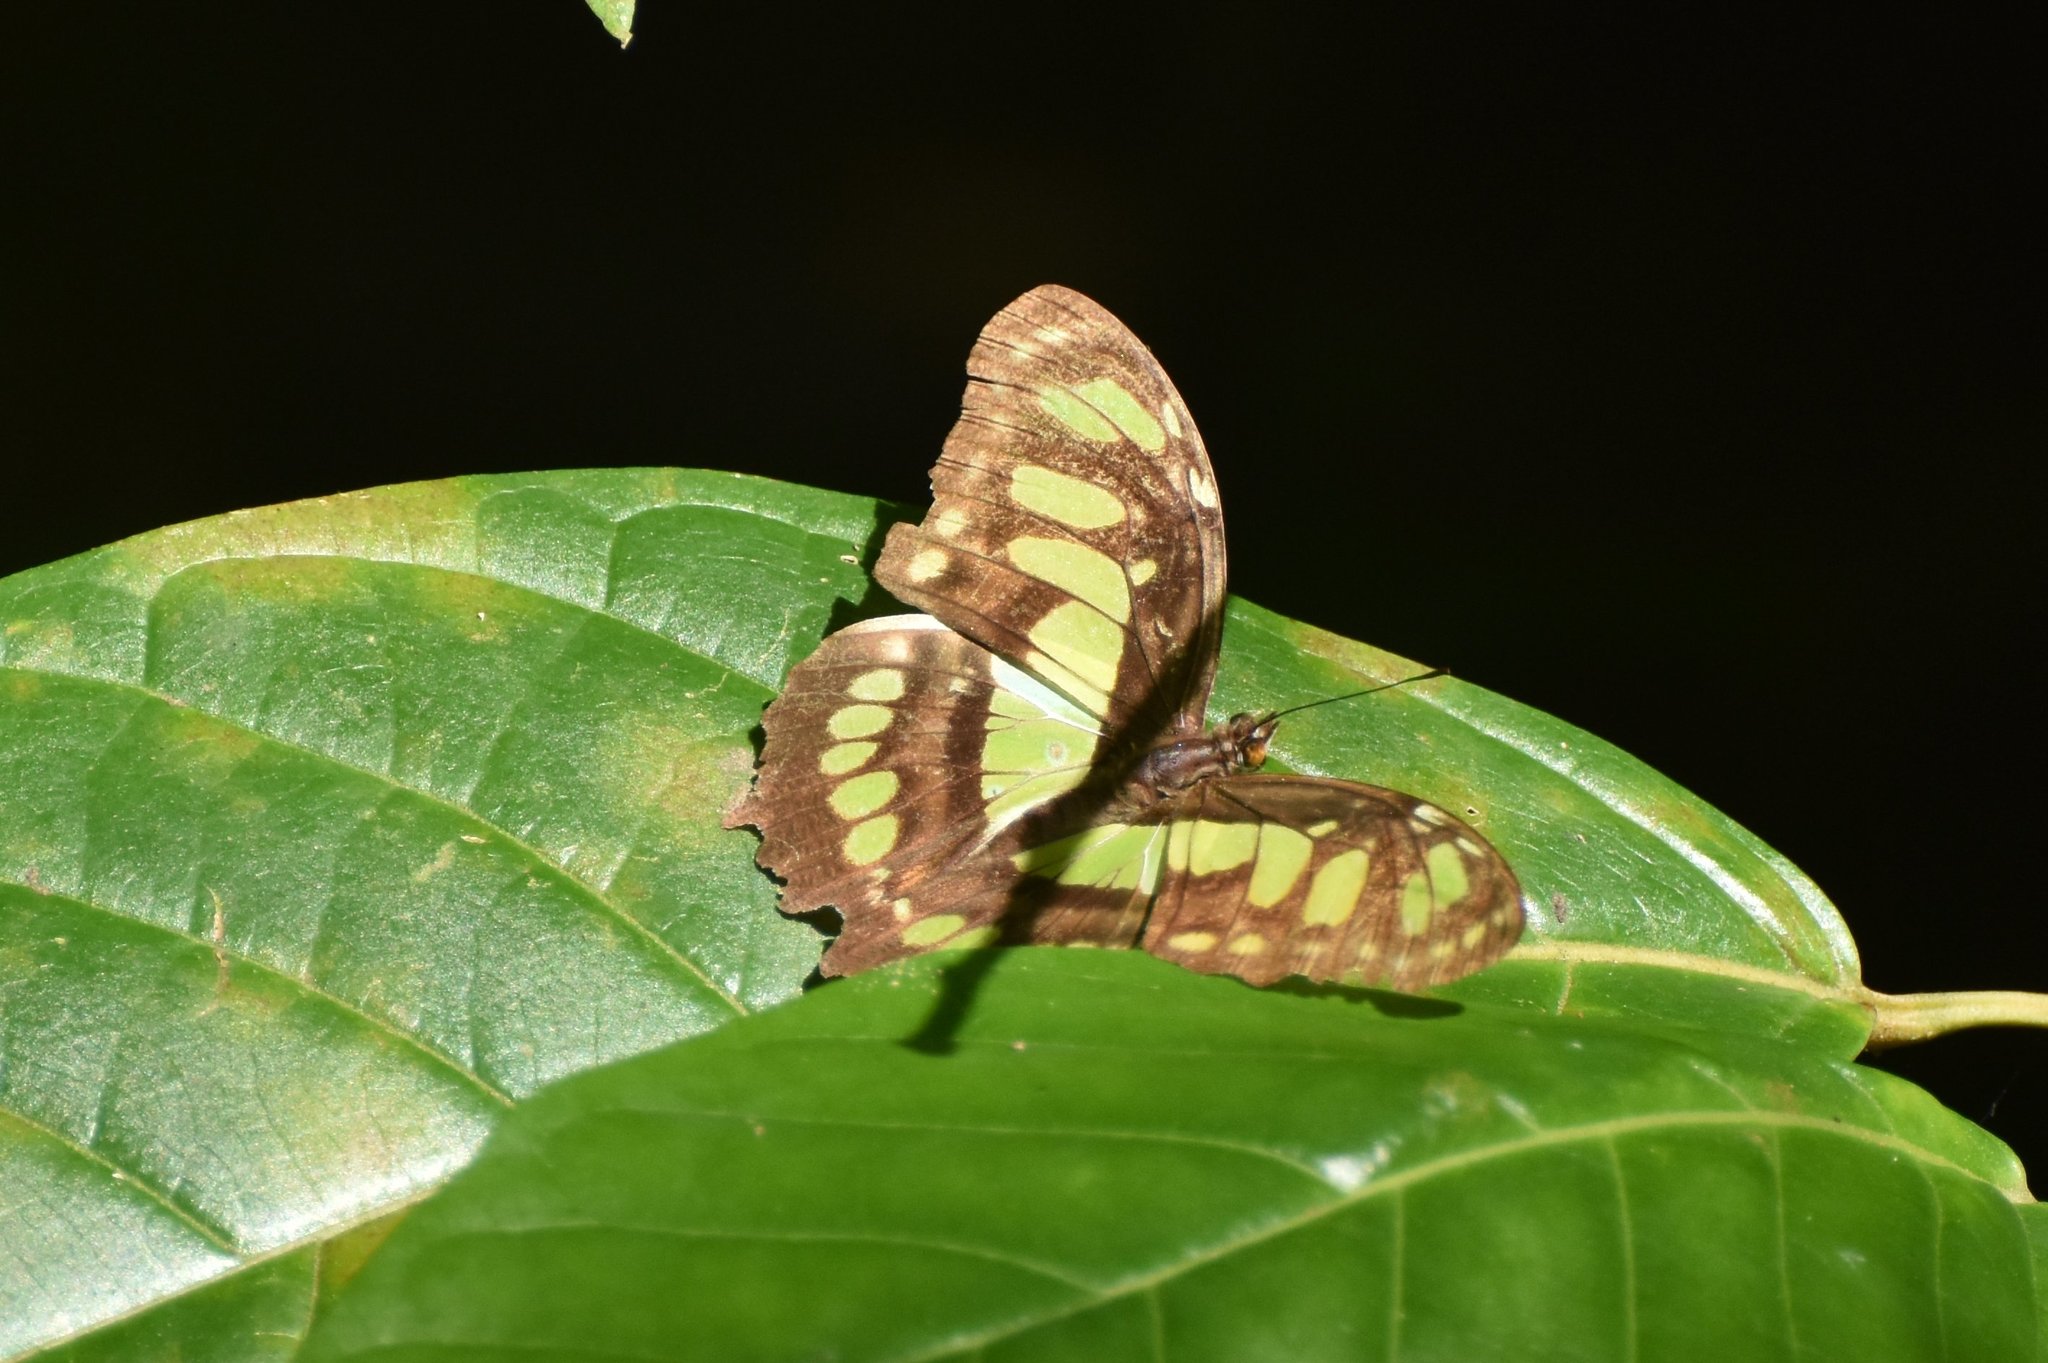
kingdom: Animalia
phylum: Arthropoda
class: Insecta
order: Lepidoptera
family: Nymphalidae
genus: Siproeta
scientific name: Siproeta stelenes
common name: Malachite
